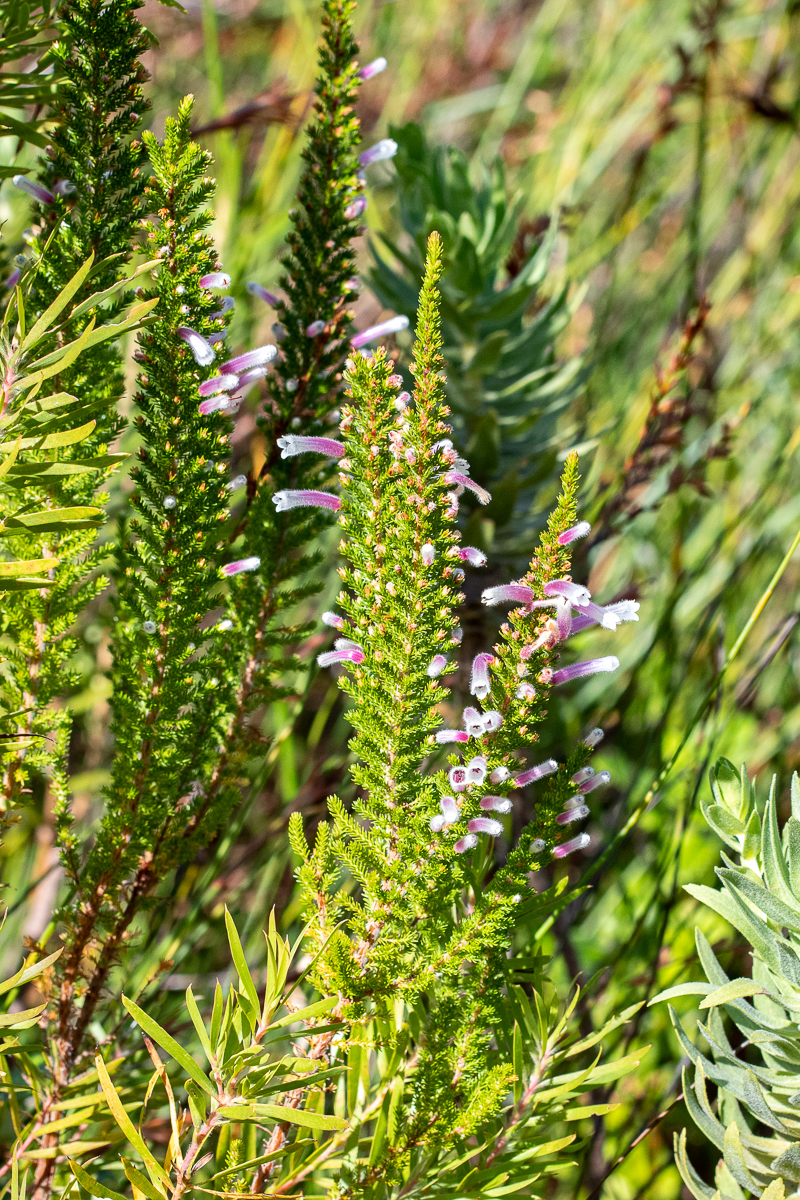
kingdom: Plantae
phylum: Tracheophyta
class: Magnoliopsida
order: Ericales
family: Ericaceae
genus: Erica
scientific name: Erica perspicua
